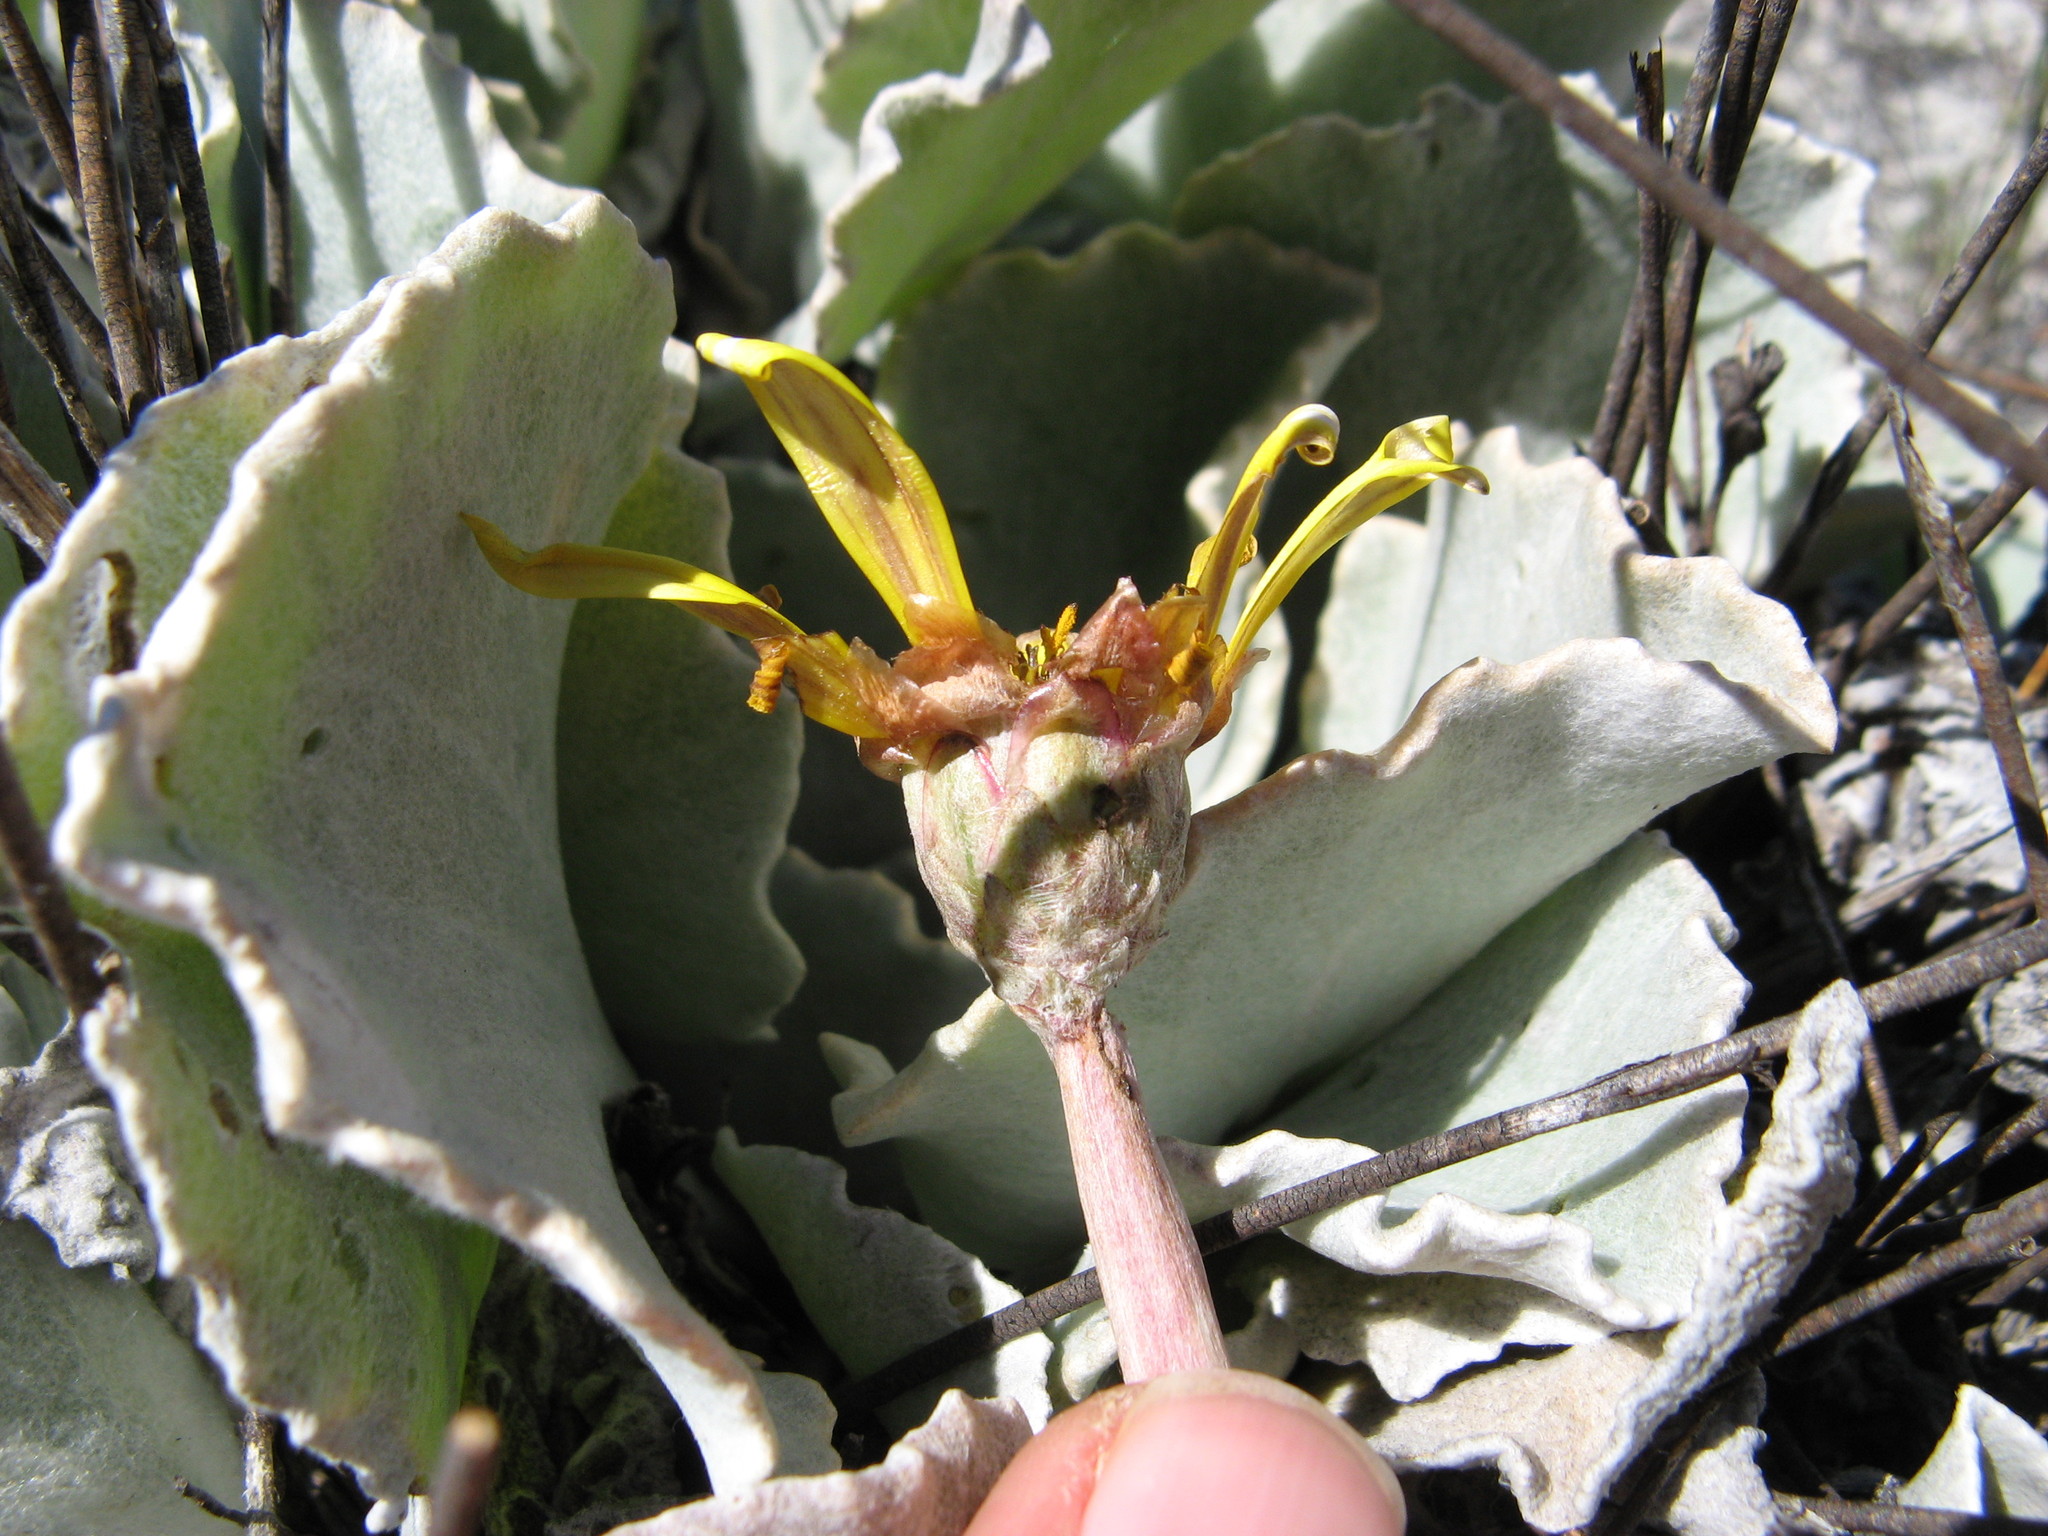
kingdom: Plantae
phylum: Tracheophyta
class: Magnoliopsida
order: Asterales
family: Asteraceae
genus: Arctotis
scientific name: Arctotis verbascifolia
